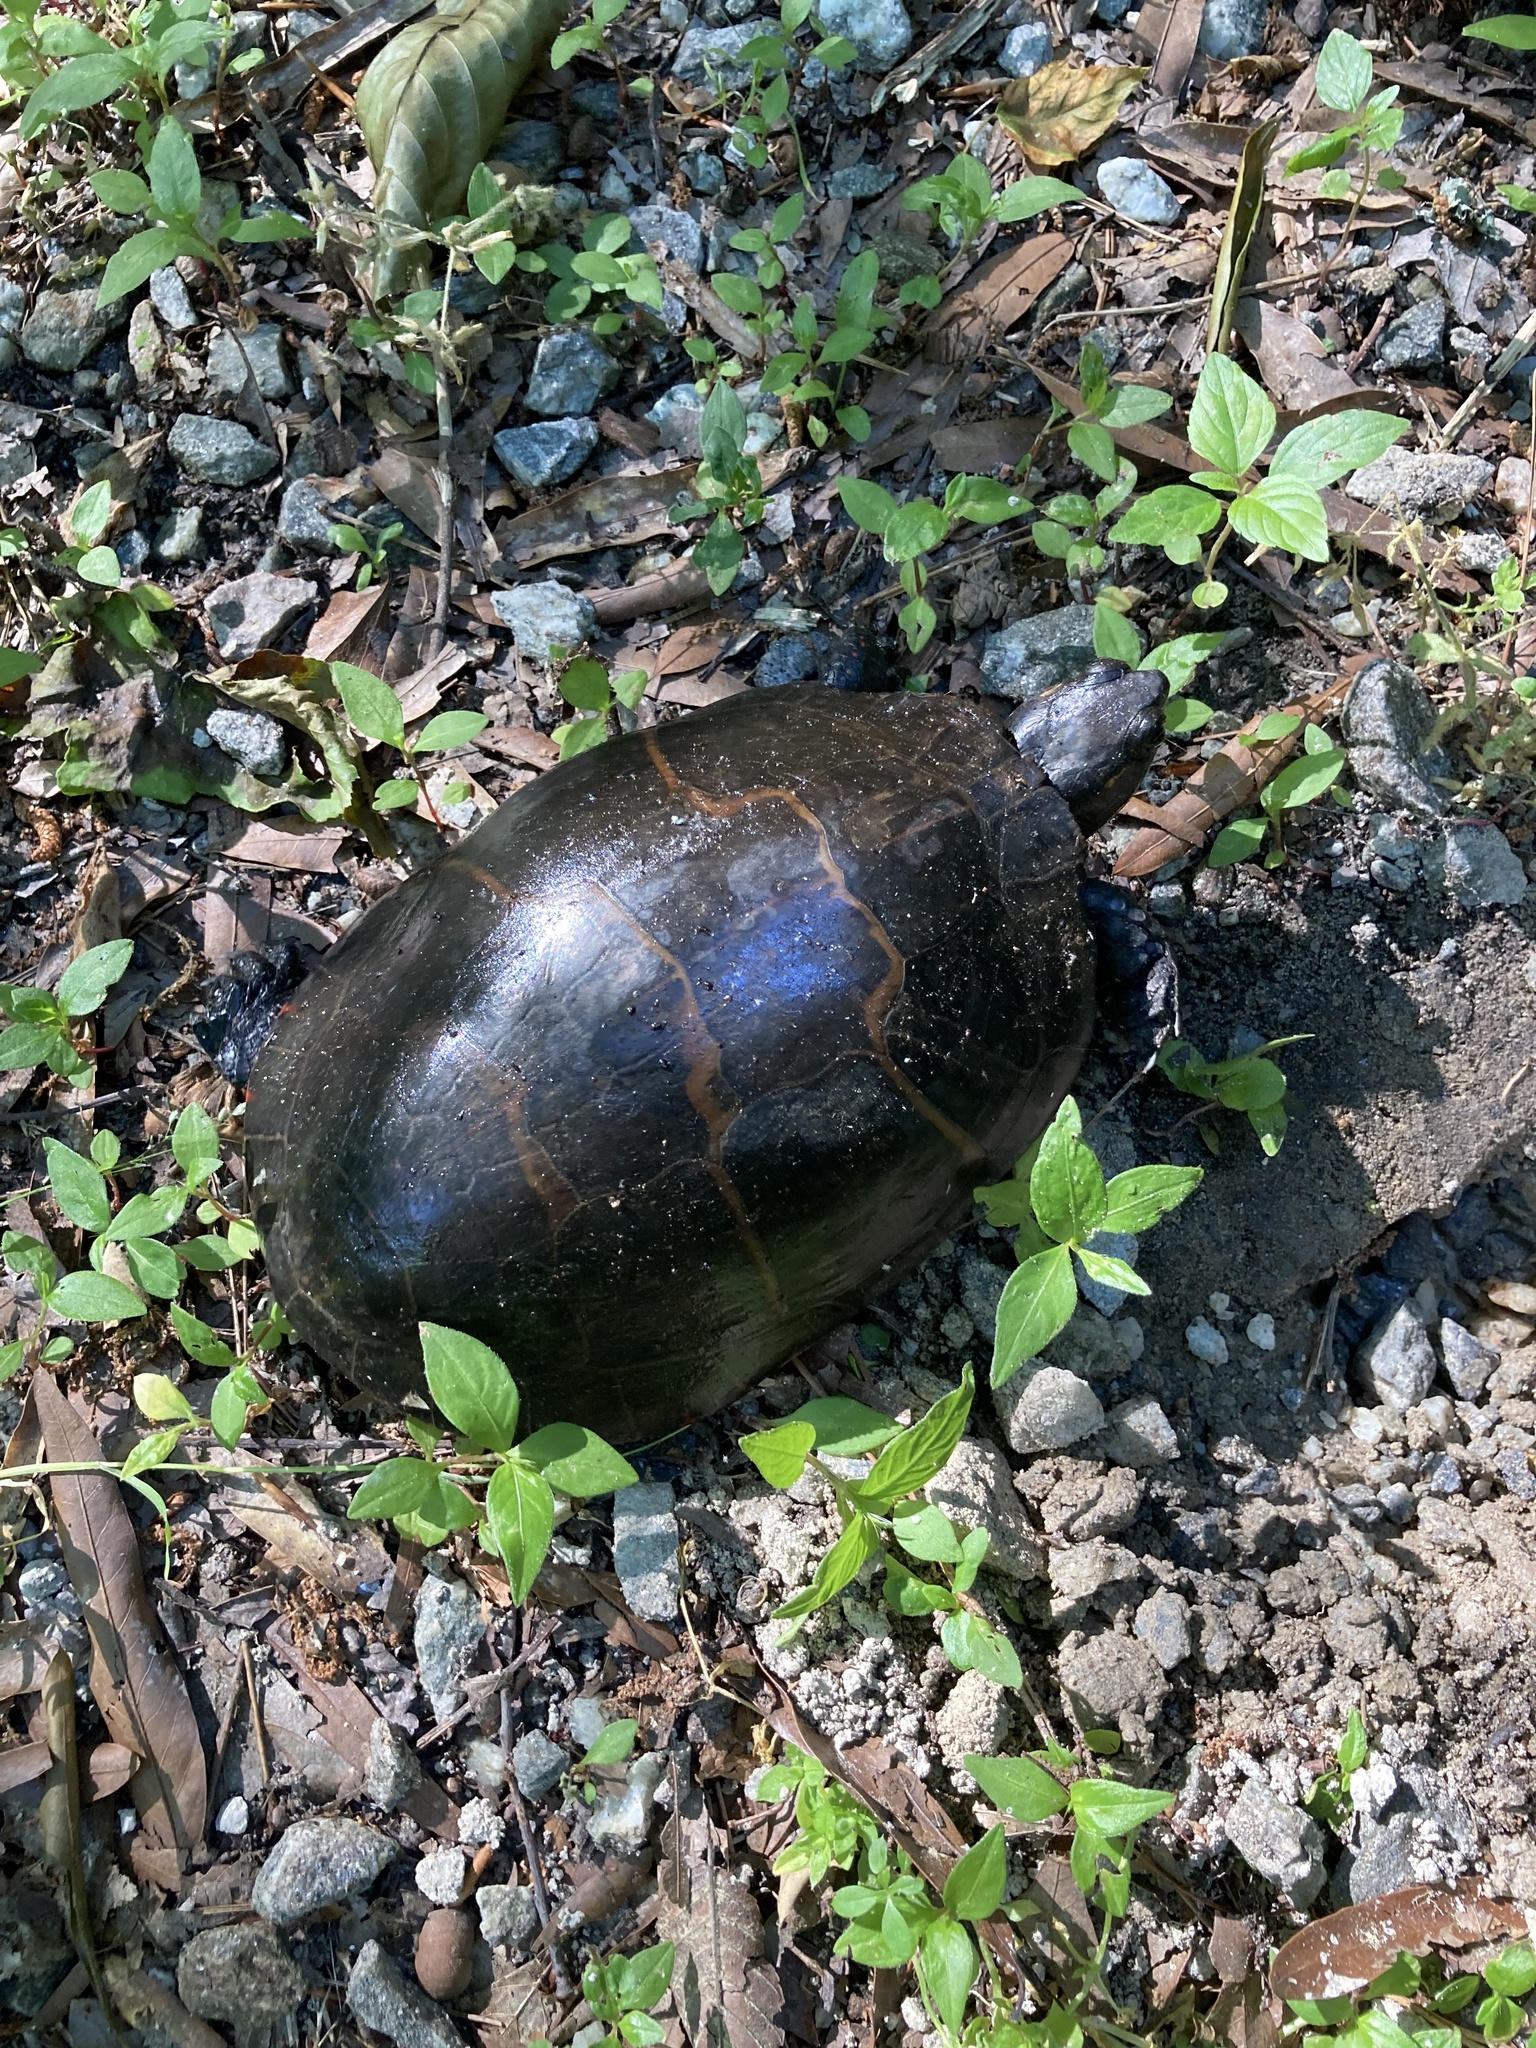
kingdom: Animalia
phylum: Chordata
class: Testudines
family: Emydidae
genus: Chrysemys
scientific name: Chrysemys picta
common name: Painted turtle
